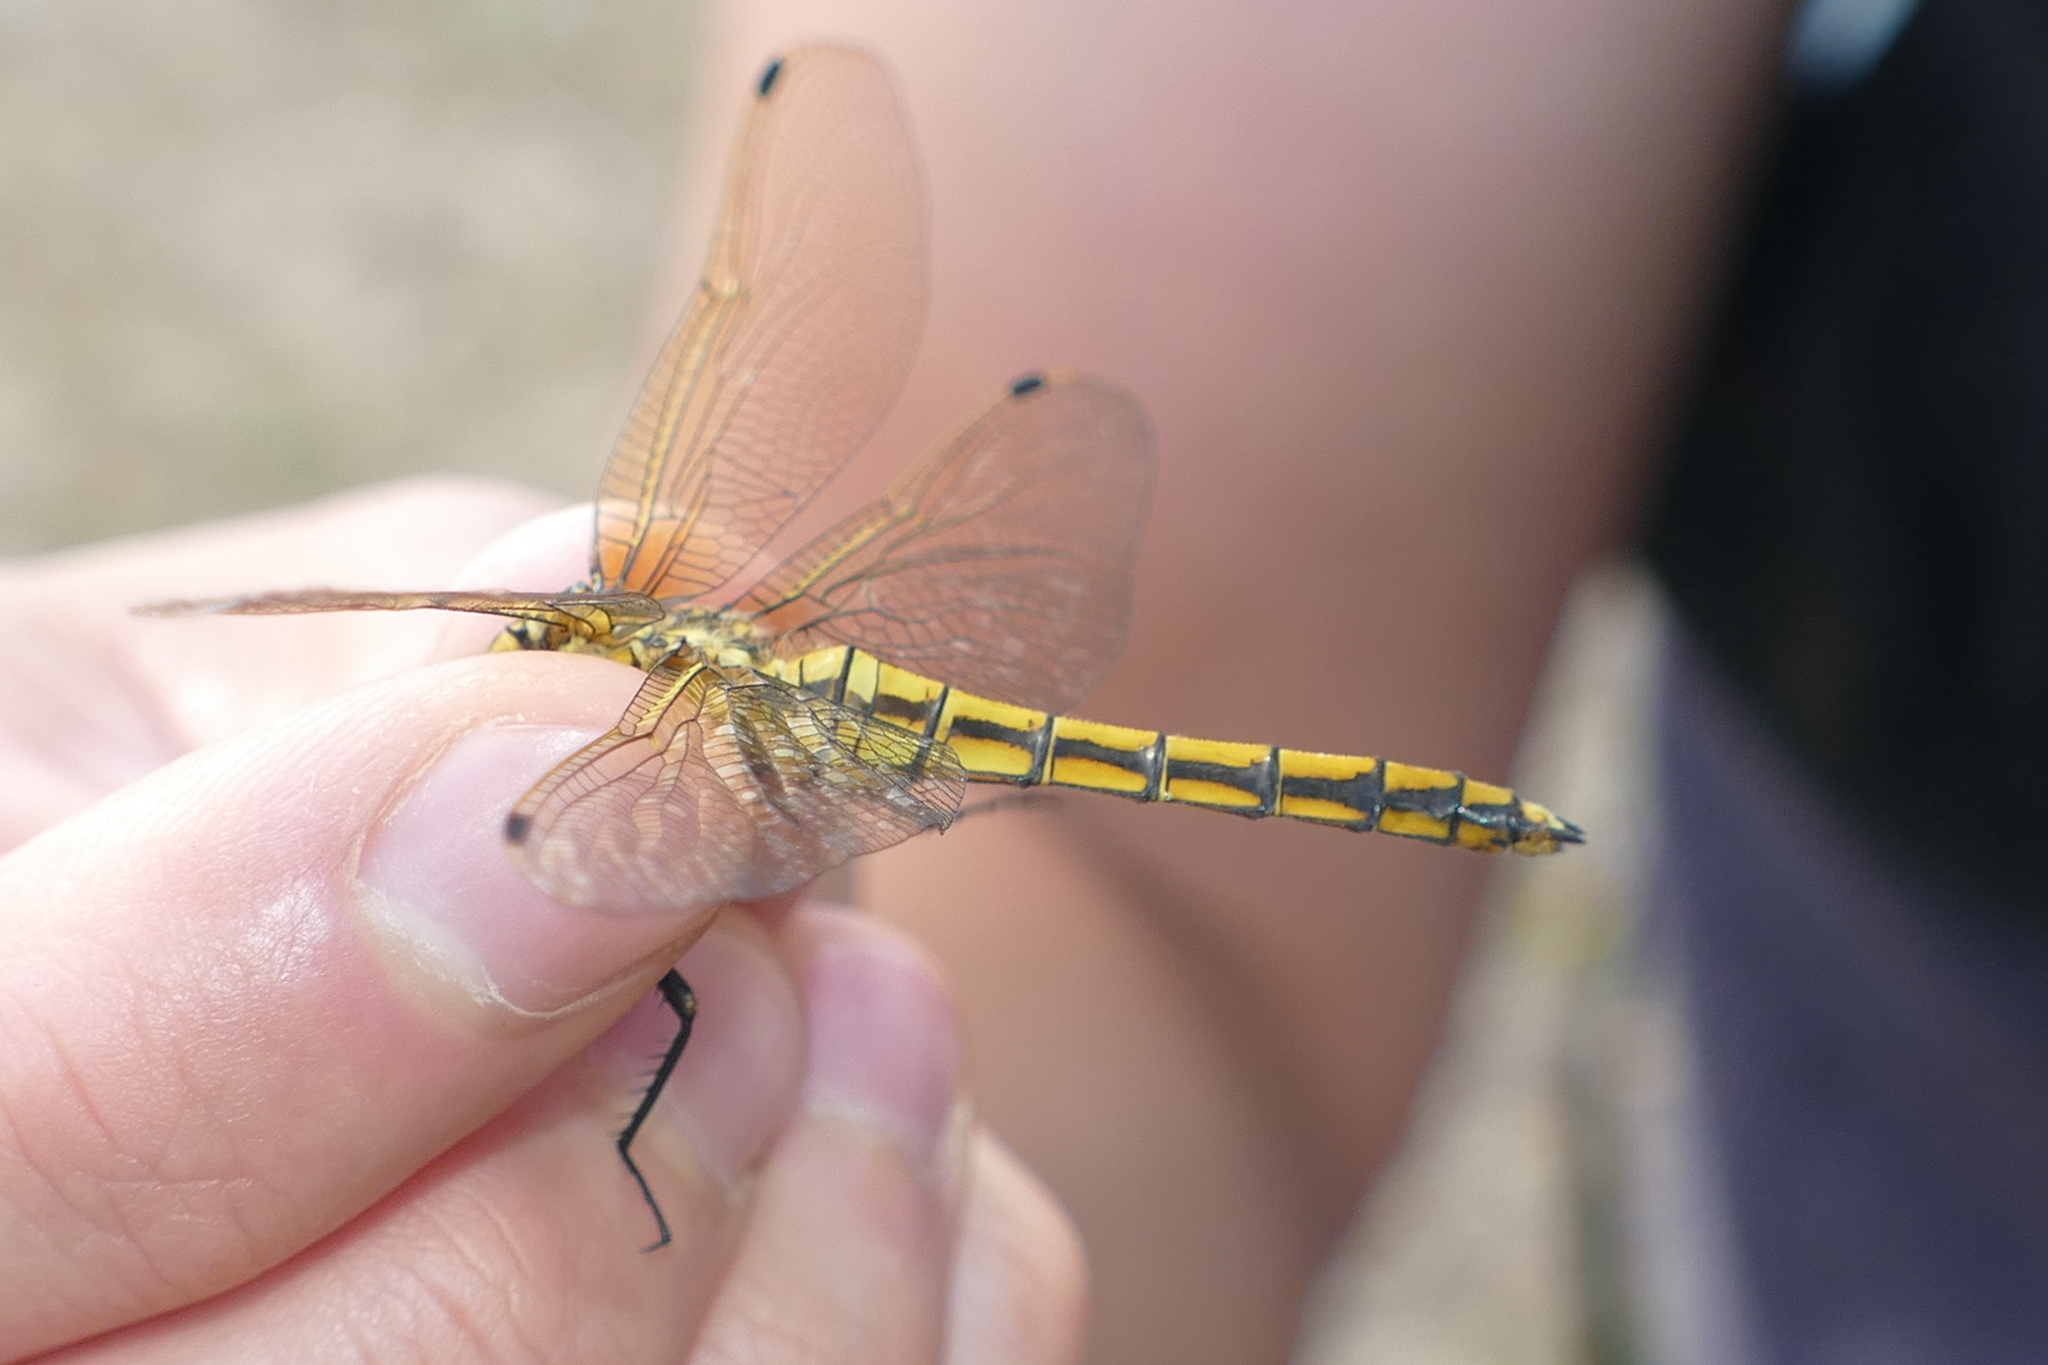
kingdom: Animalia
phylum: Arthropoda
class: Insecta
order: Odonata
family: Libellulidae
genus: Orthetrum
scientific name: Orthetrum cancellatum
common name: Black-tailed skimmer
